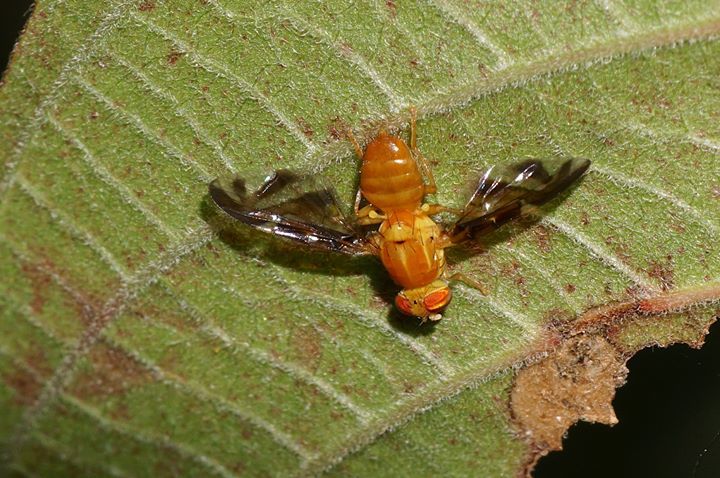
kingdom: Animalia
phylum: Arthropoda
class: Insecta
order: Diptera
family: Tephritidae
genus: Anastrepha
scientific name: Anastrepha suspensa
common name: Caribbean fruit fly
